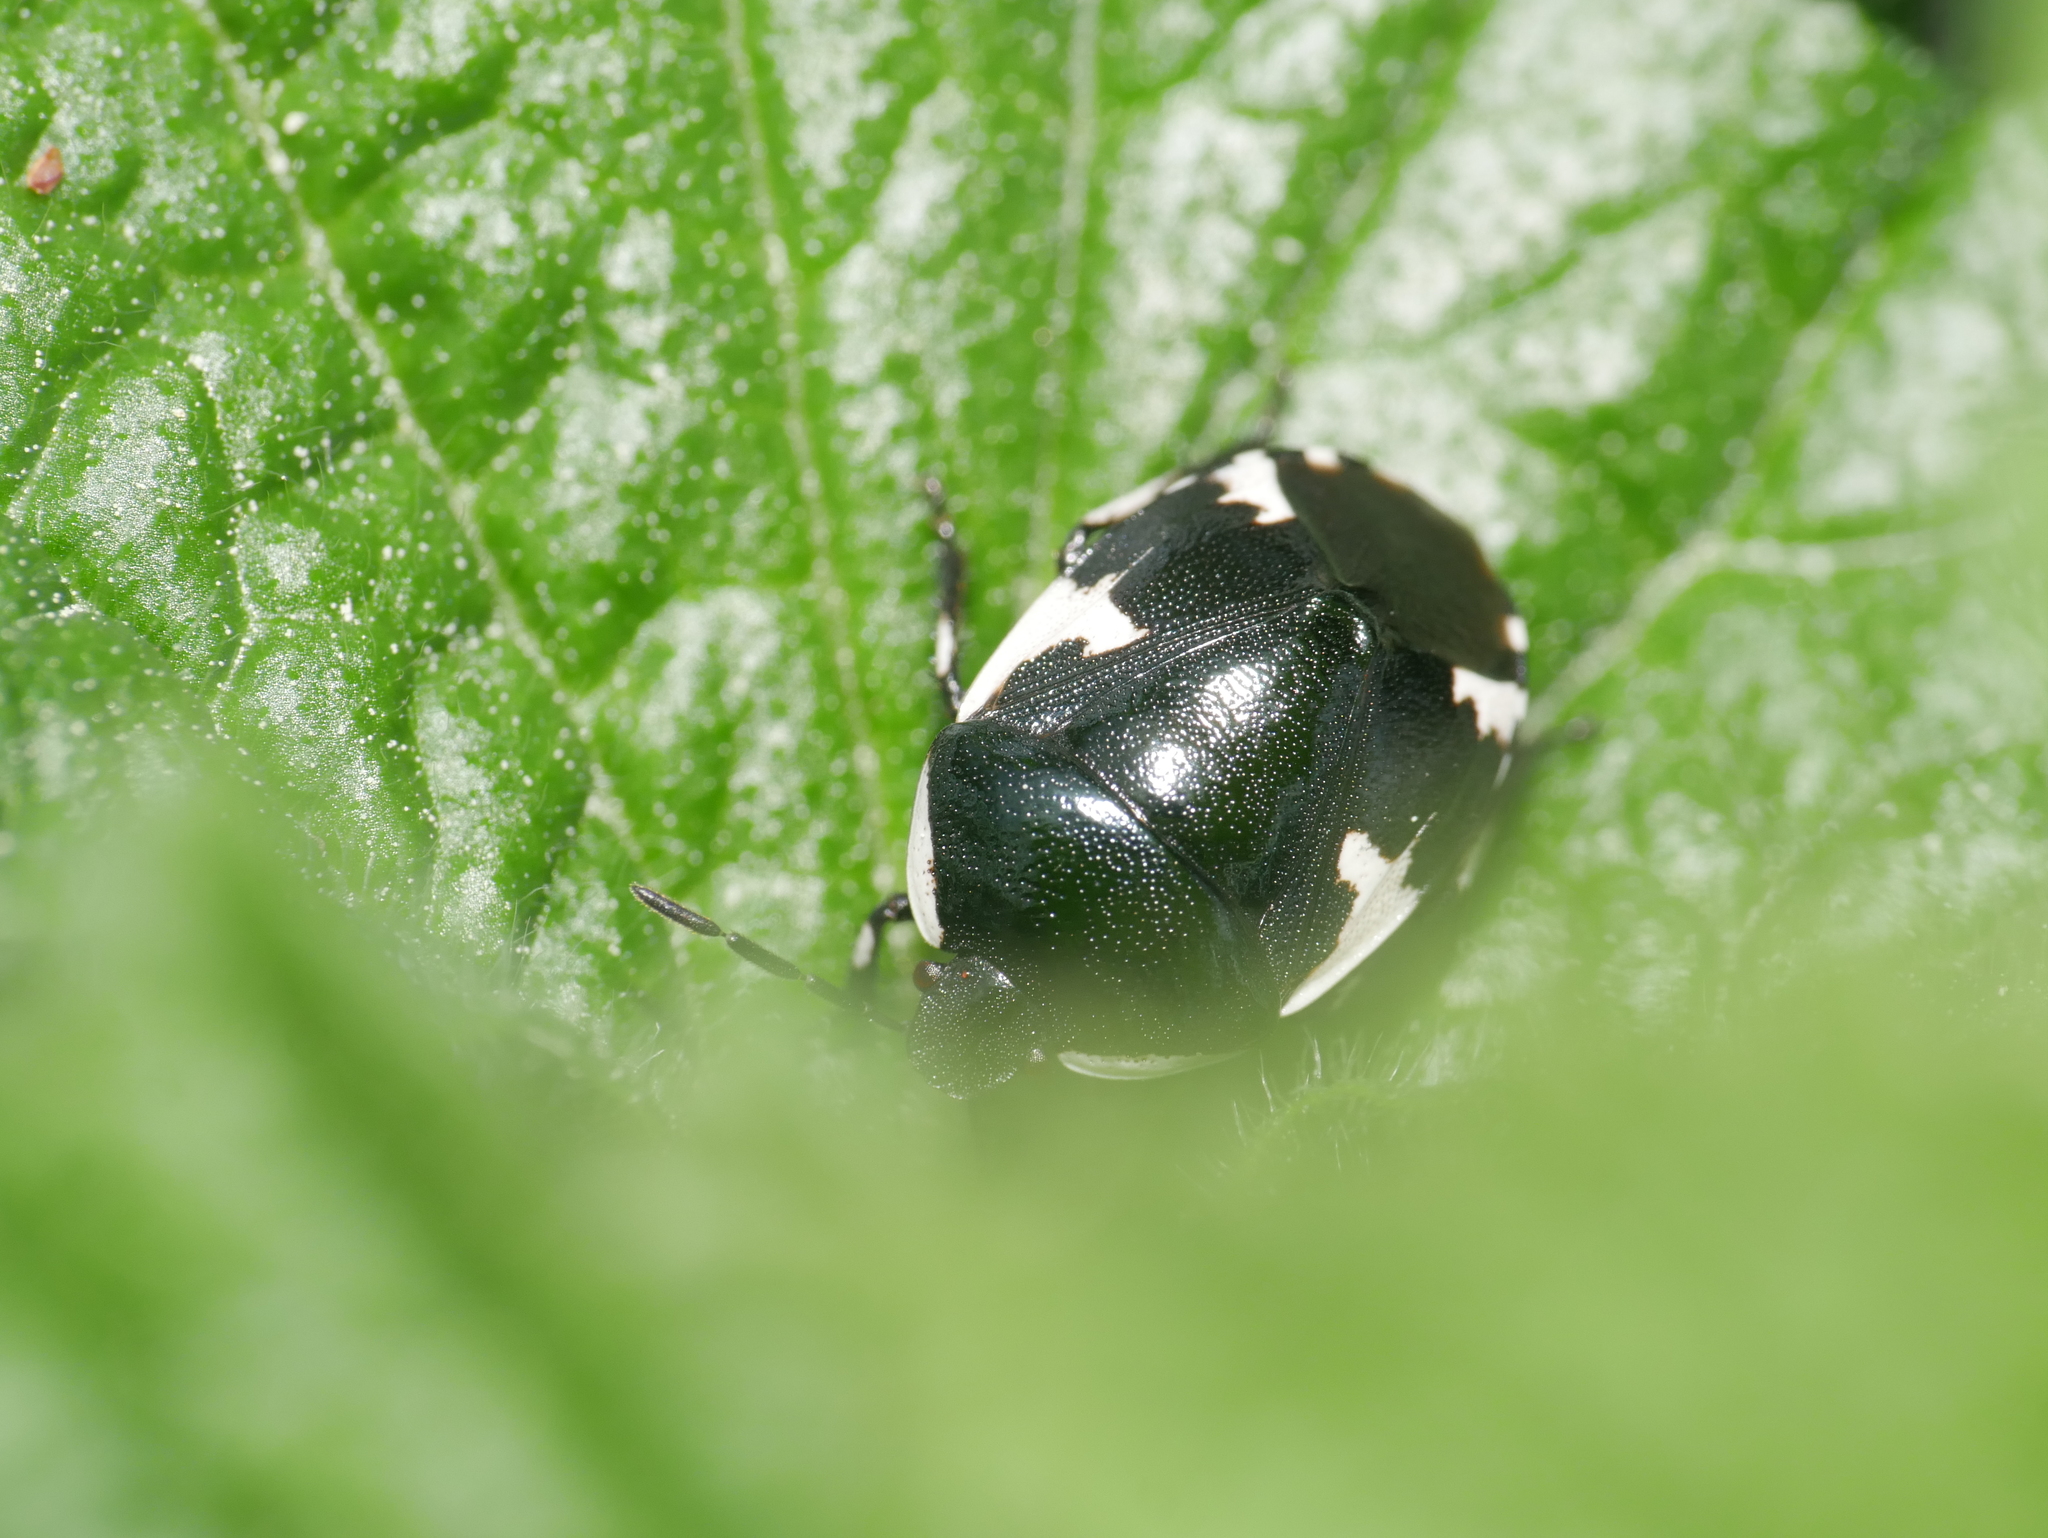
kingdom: Animalia
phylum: Arthropoda
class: Insecta
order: Hemiptera
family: Cydnidae
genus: Tritomegas
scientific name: Tritomegas sexmaculatus
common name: Rambur's pied shieldbug
